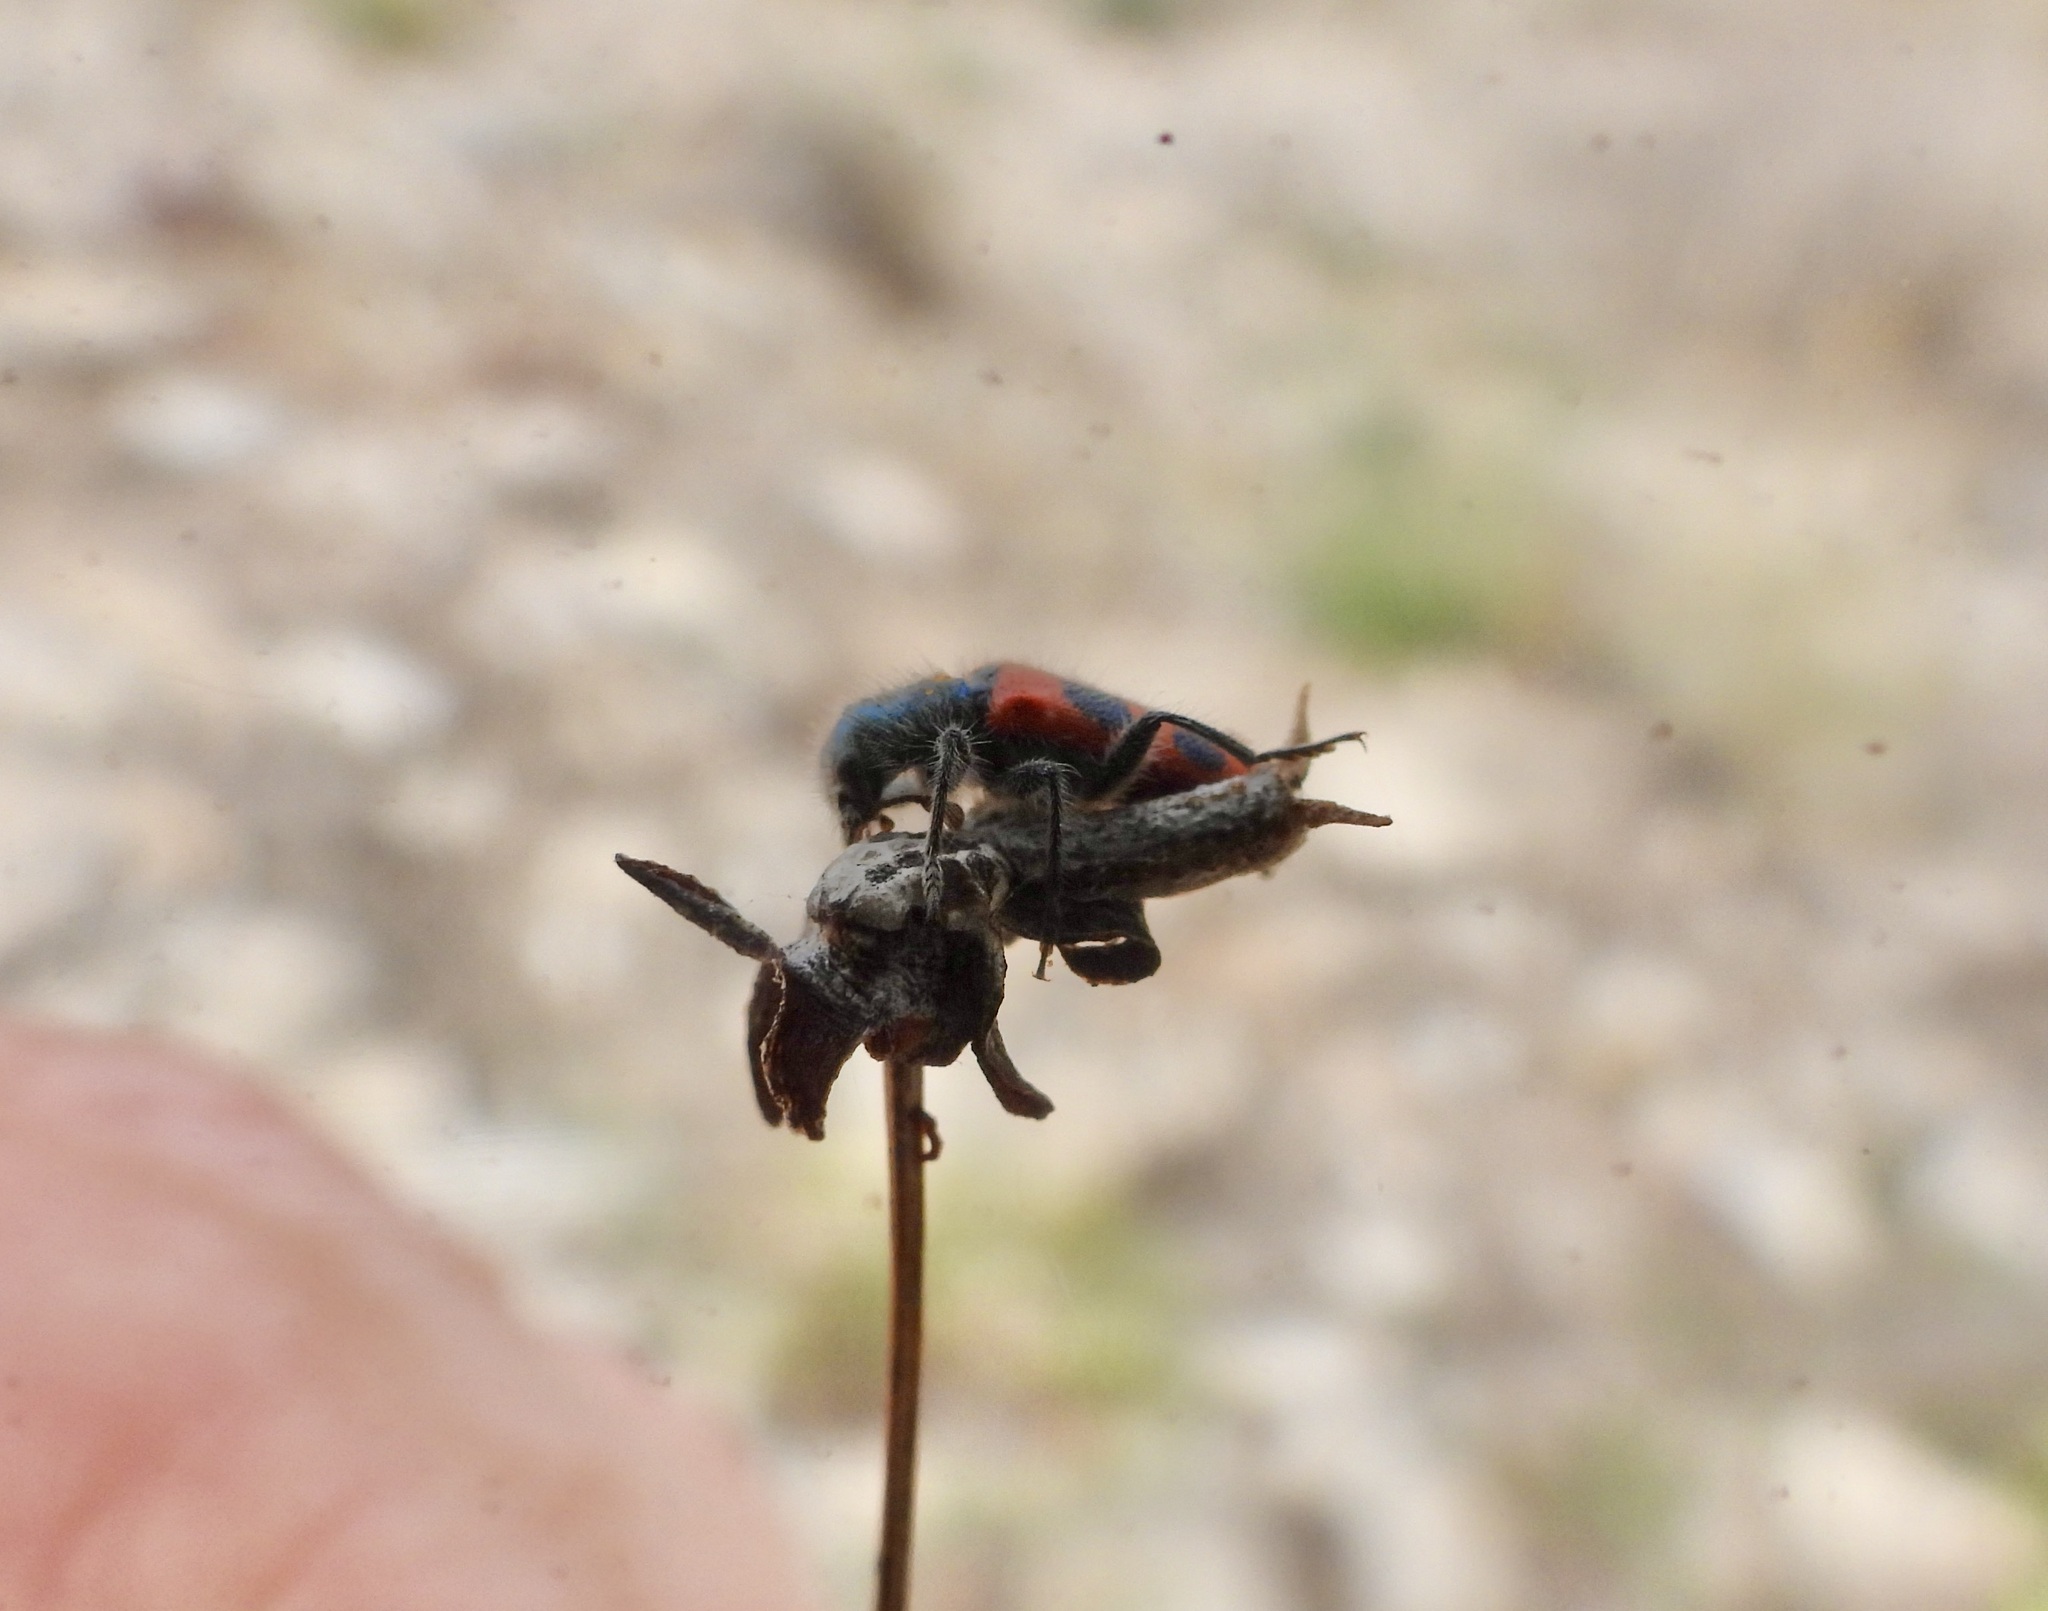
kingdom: Animalia
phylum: Arthropoda
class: Insecta
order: Coleoptera
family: Cleridae
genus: Trichodes
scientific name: Trichodes oresterus
